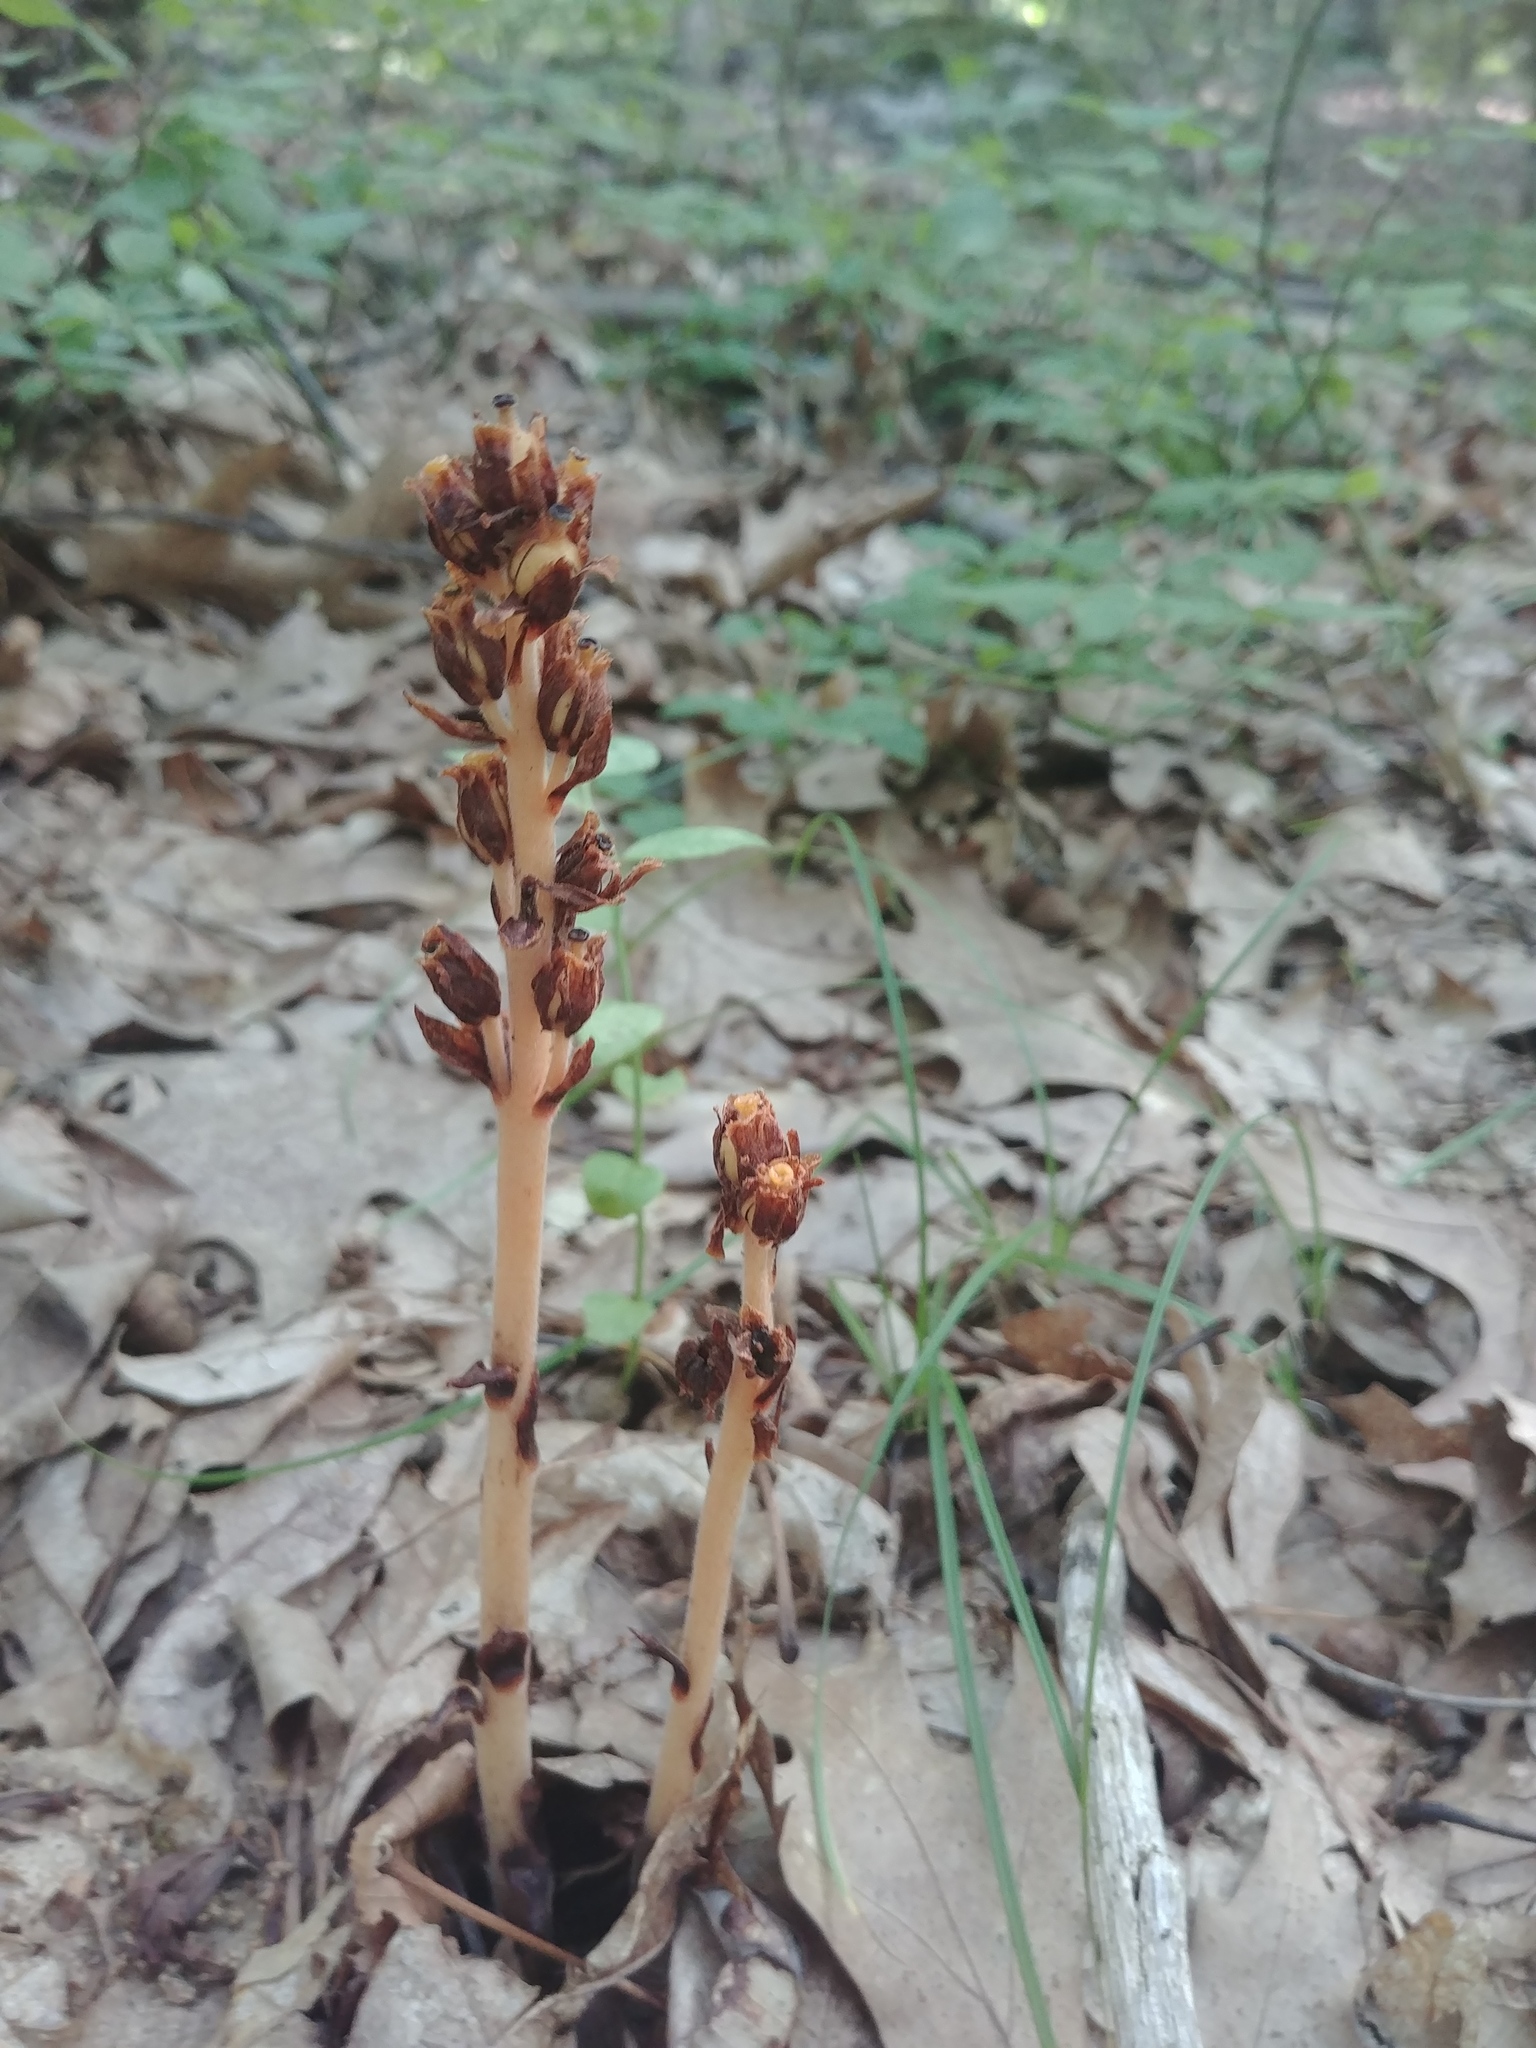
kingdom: Plantae
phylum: Tracheophyta
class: Magnoliopsida
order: Ericales
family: Ericaceae
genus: Hypopitys
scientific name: Hypopitys monotropa
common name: Yellow bird's-nest
